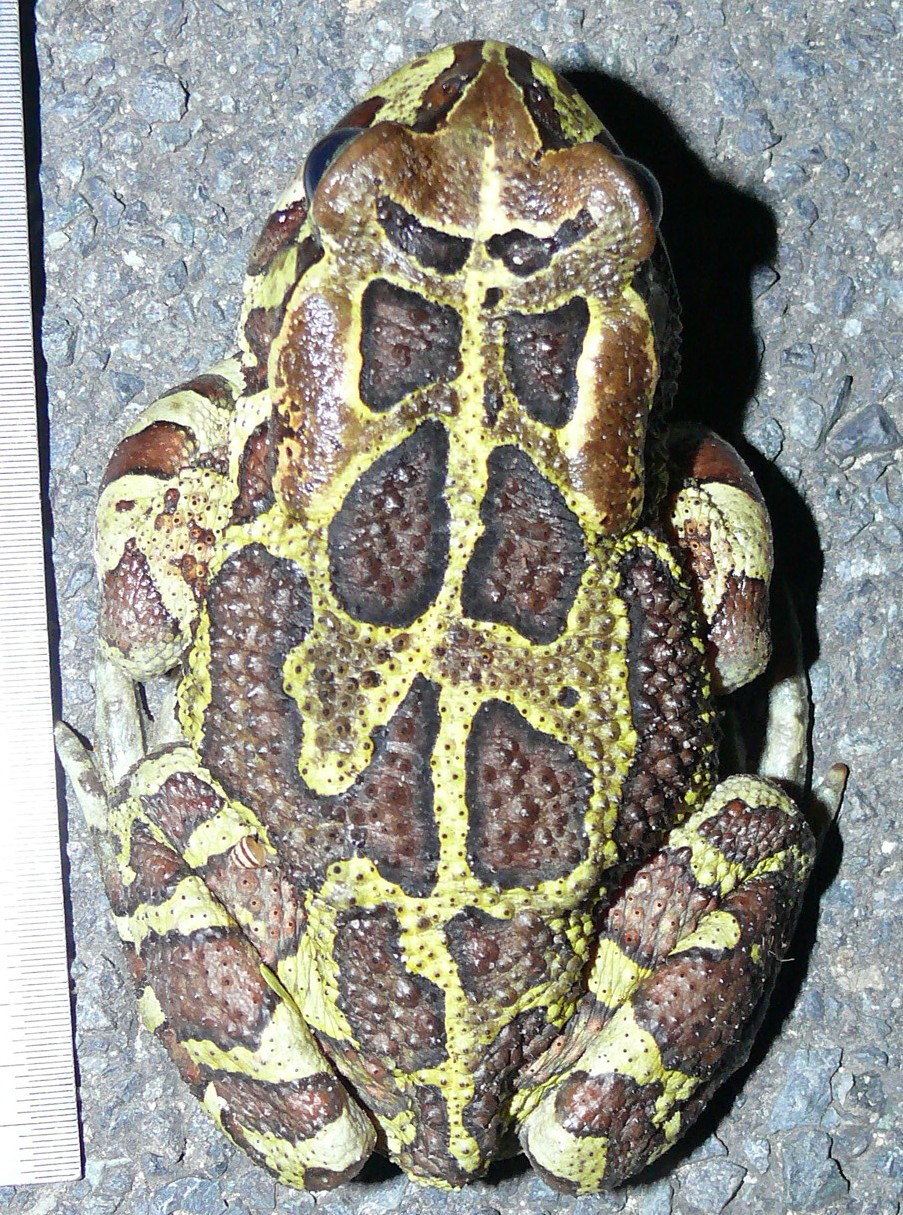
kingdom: Animalia
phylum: Chordata
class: Amphibia
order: Anura
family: Bufonidae
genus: Sclerophrys
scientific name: Sclerophrys pantherina
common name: Panther toad
